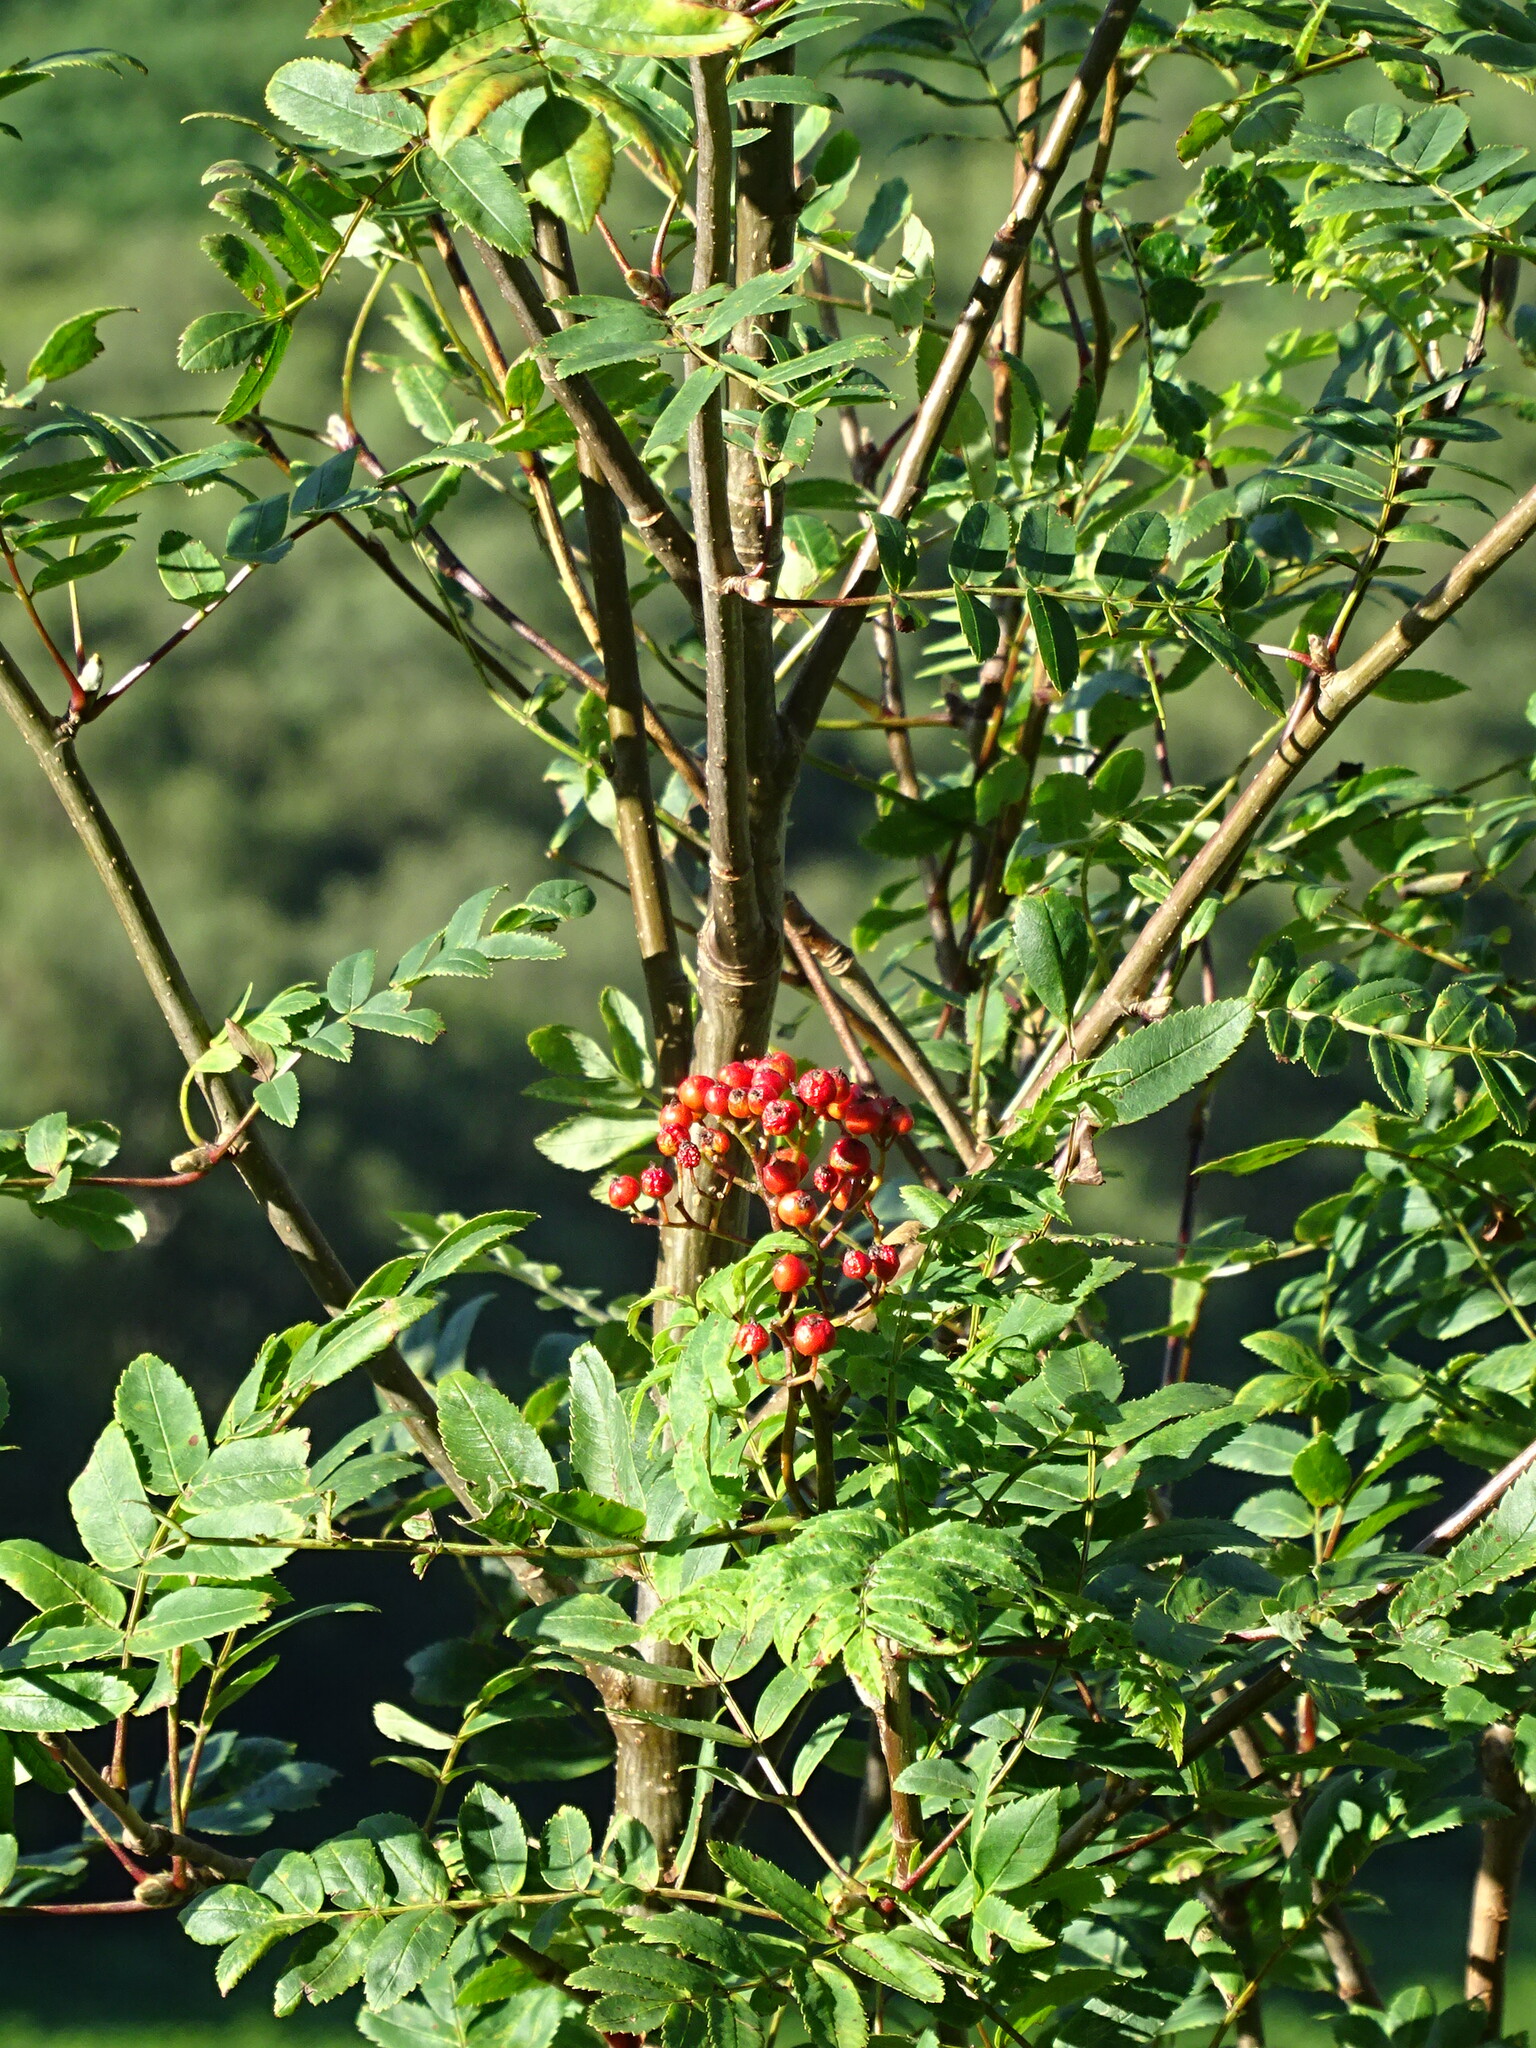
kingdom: Plantae
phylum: Tracheophyta
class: Magnoliopsida
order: Rosales
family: Rosaceae
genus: Sorbus
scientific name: Sorbus aucuparia
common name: Rowan
